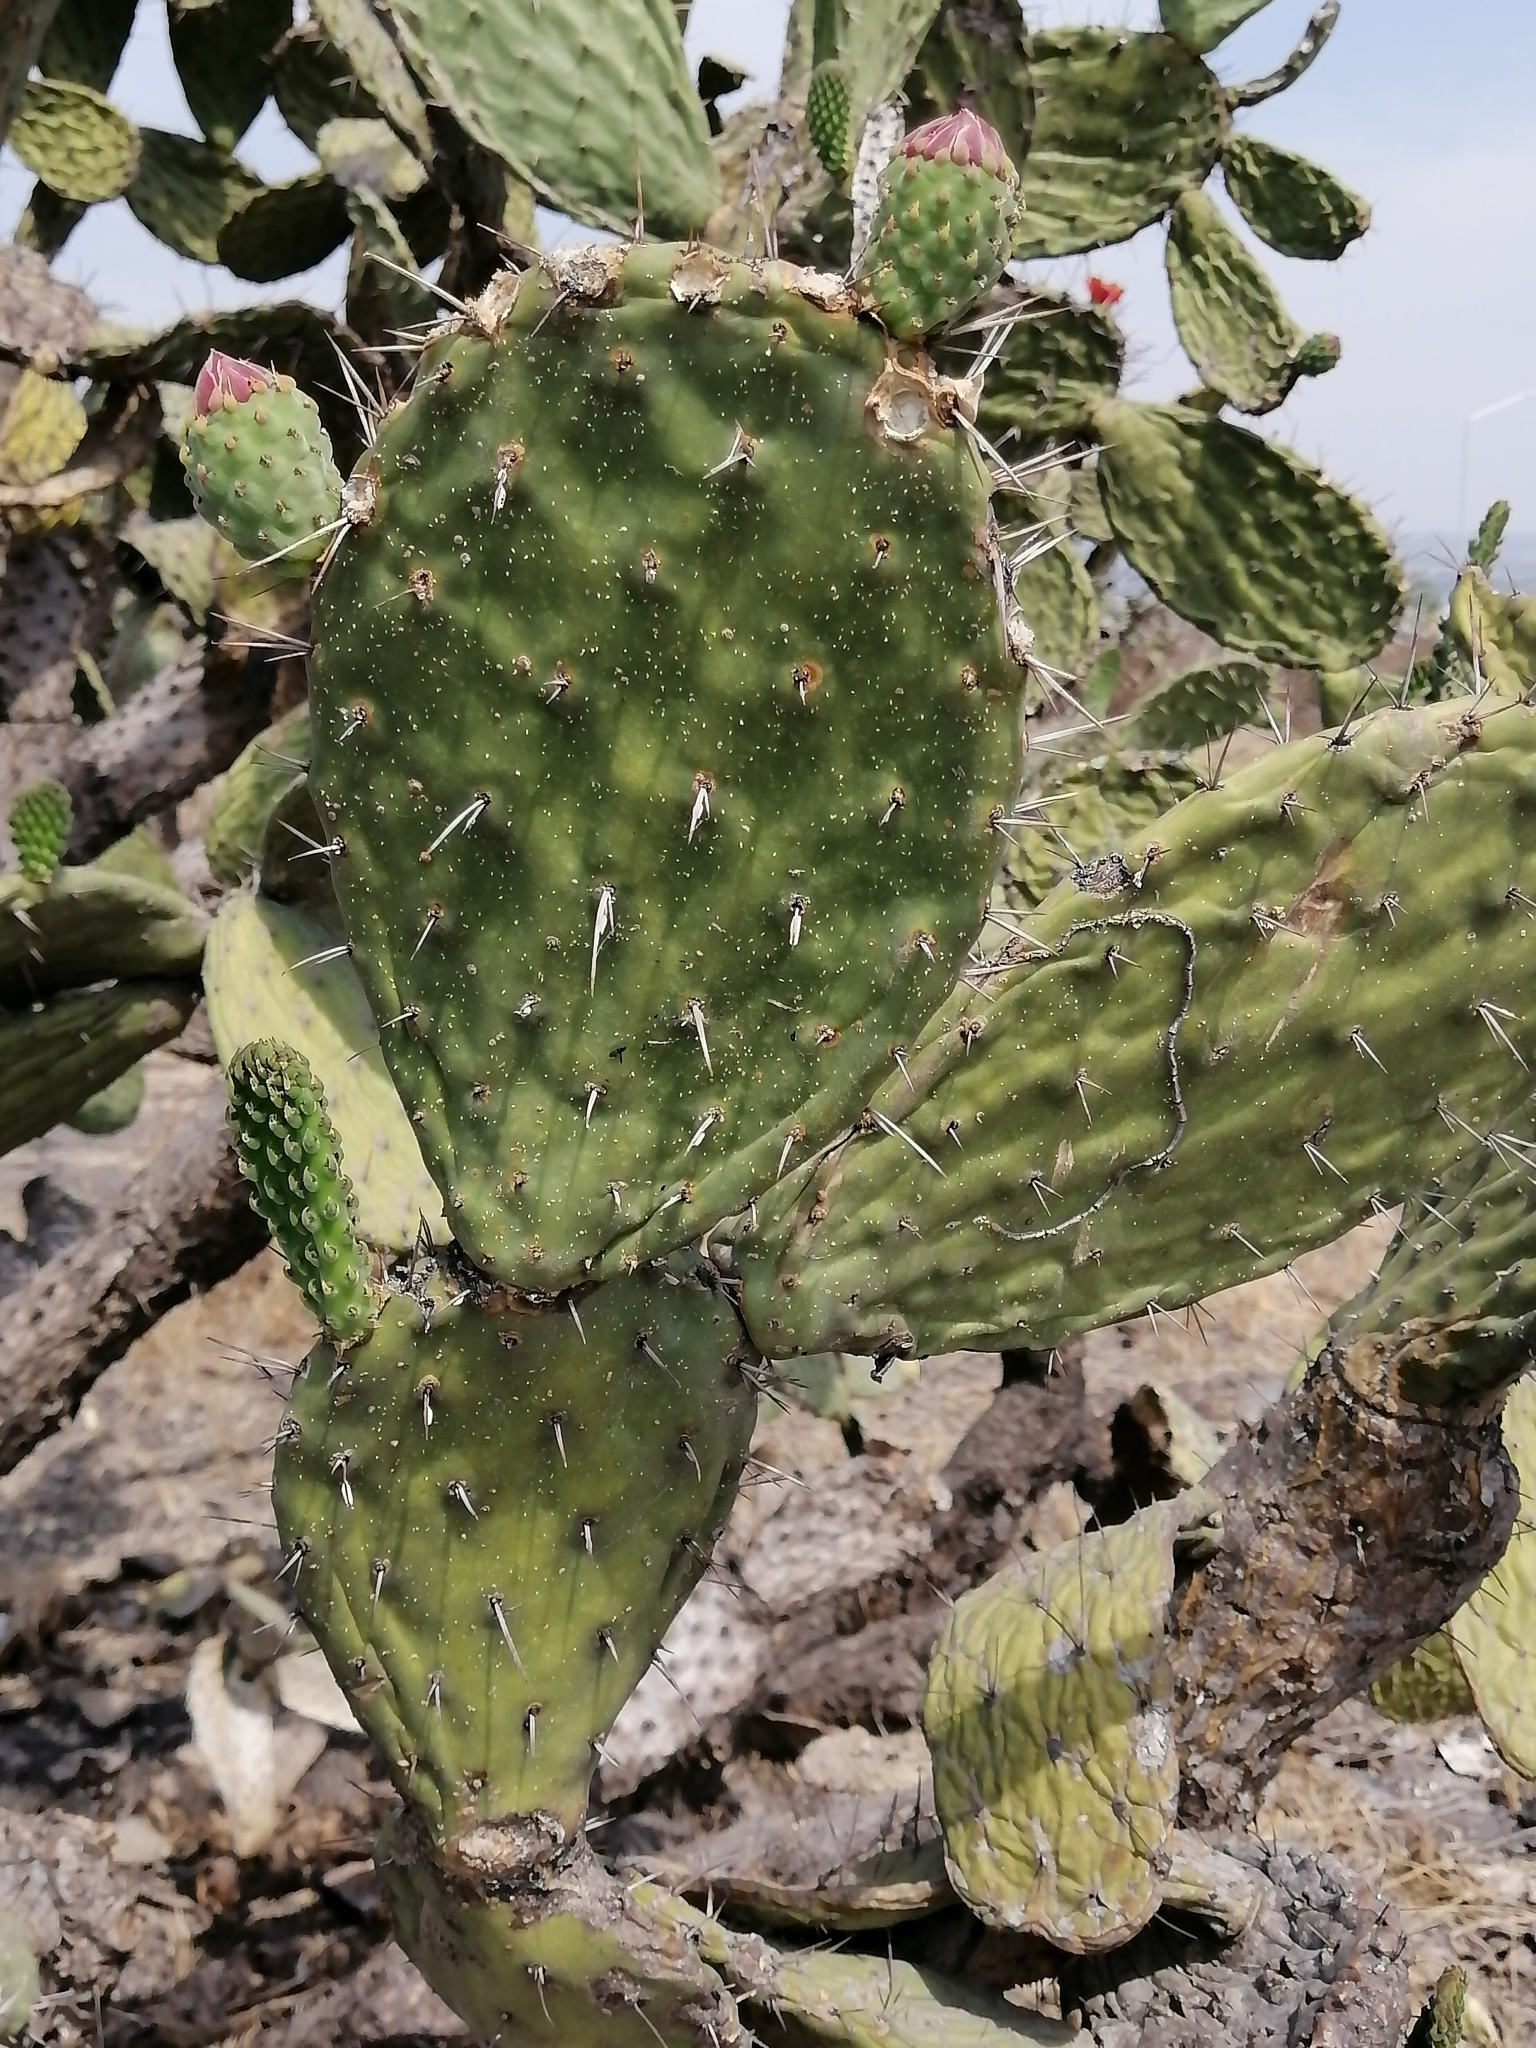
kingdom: Plantae
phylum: Tracheophyta
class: Magnoliopsida
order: Caryophyllales
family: Cactaceae
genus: Opuntia
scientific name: Opuntia tomentosa
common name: Woollyjoint pricklypear
